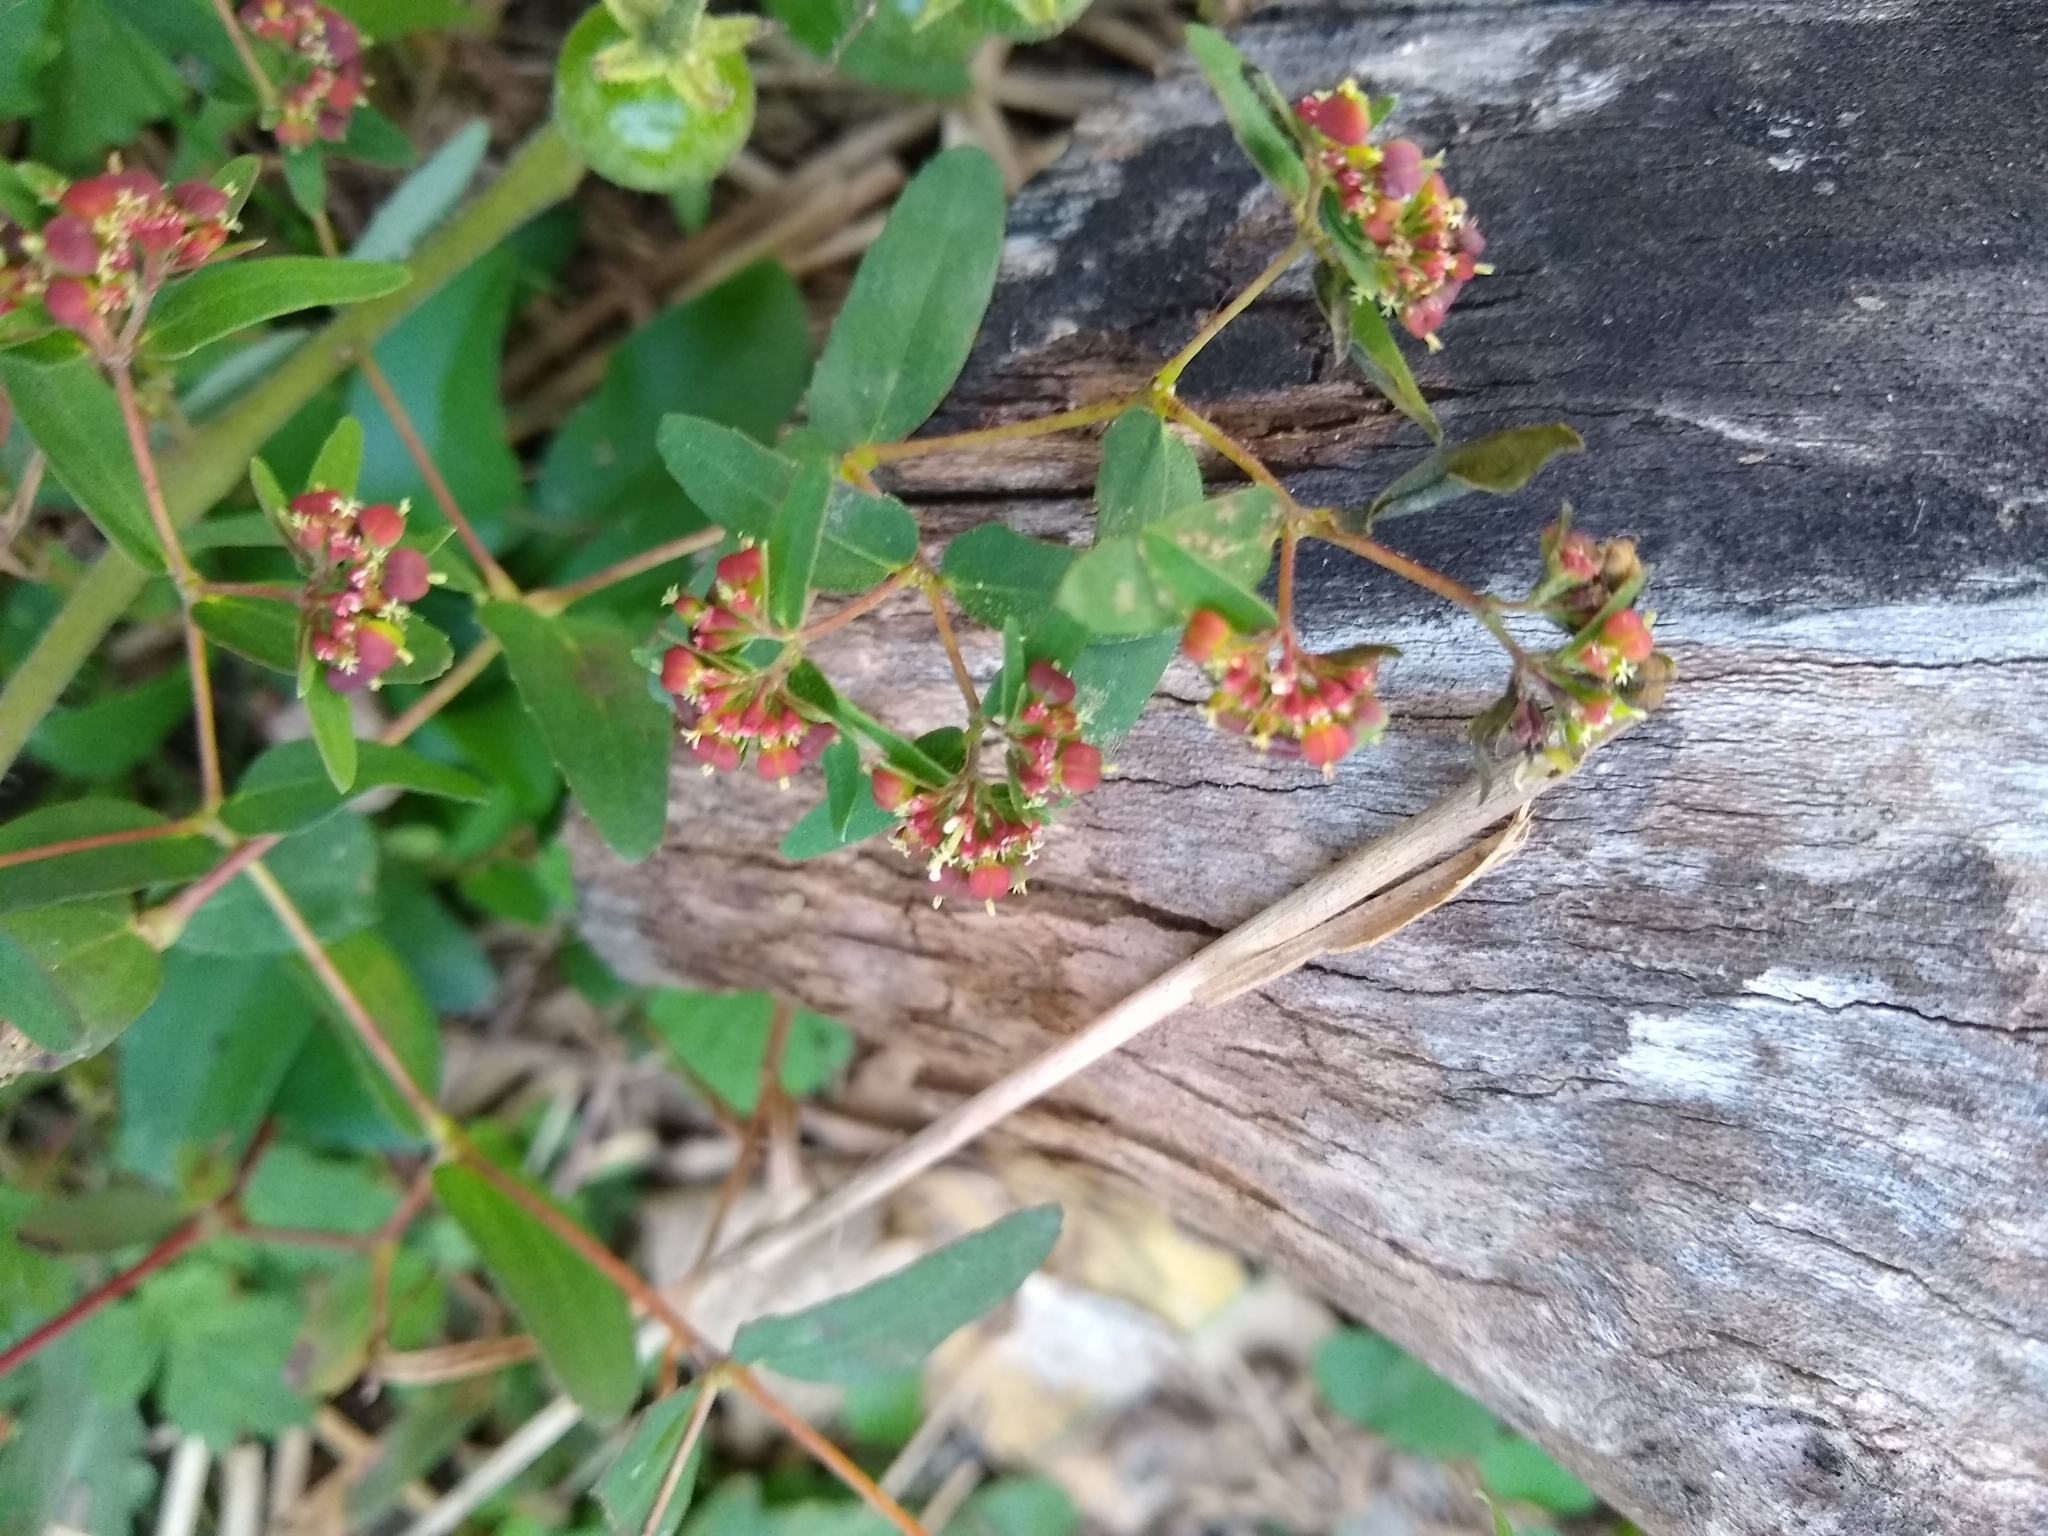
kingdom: Plantae
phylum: Tracheophyta
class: Magnoliopsida
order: Malpighiales
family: Euphorbiaceae
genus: Euphorbia
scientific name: Euphorbia nutans
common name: Eyebane
